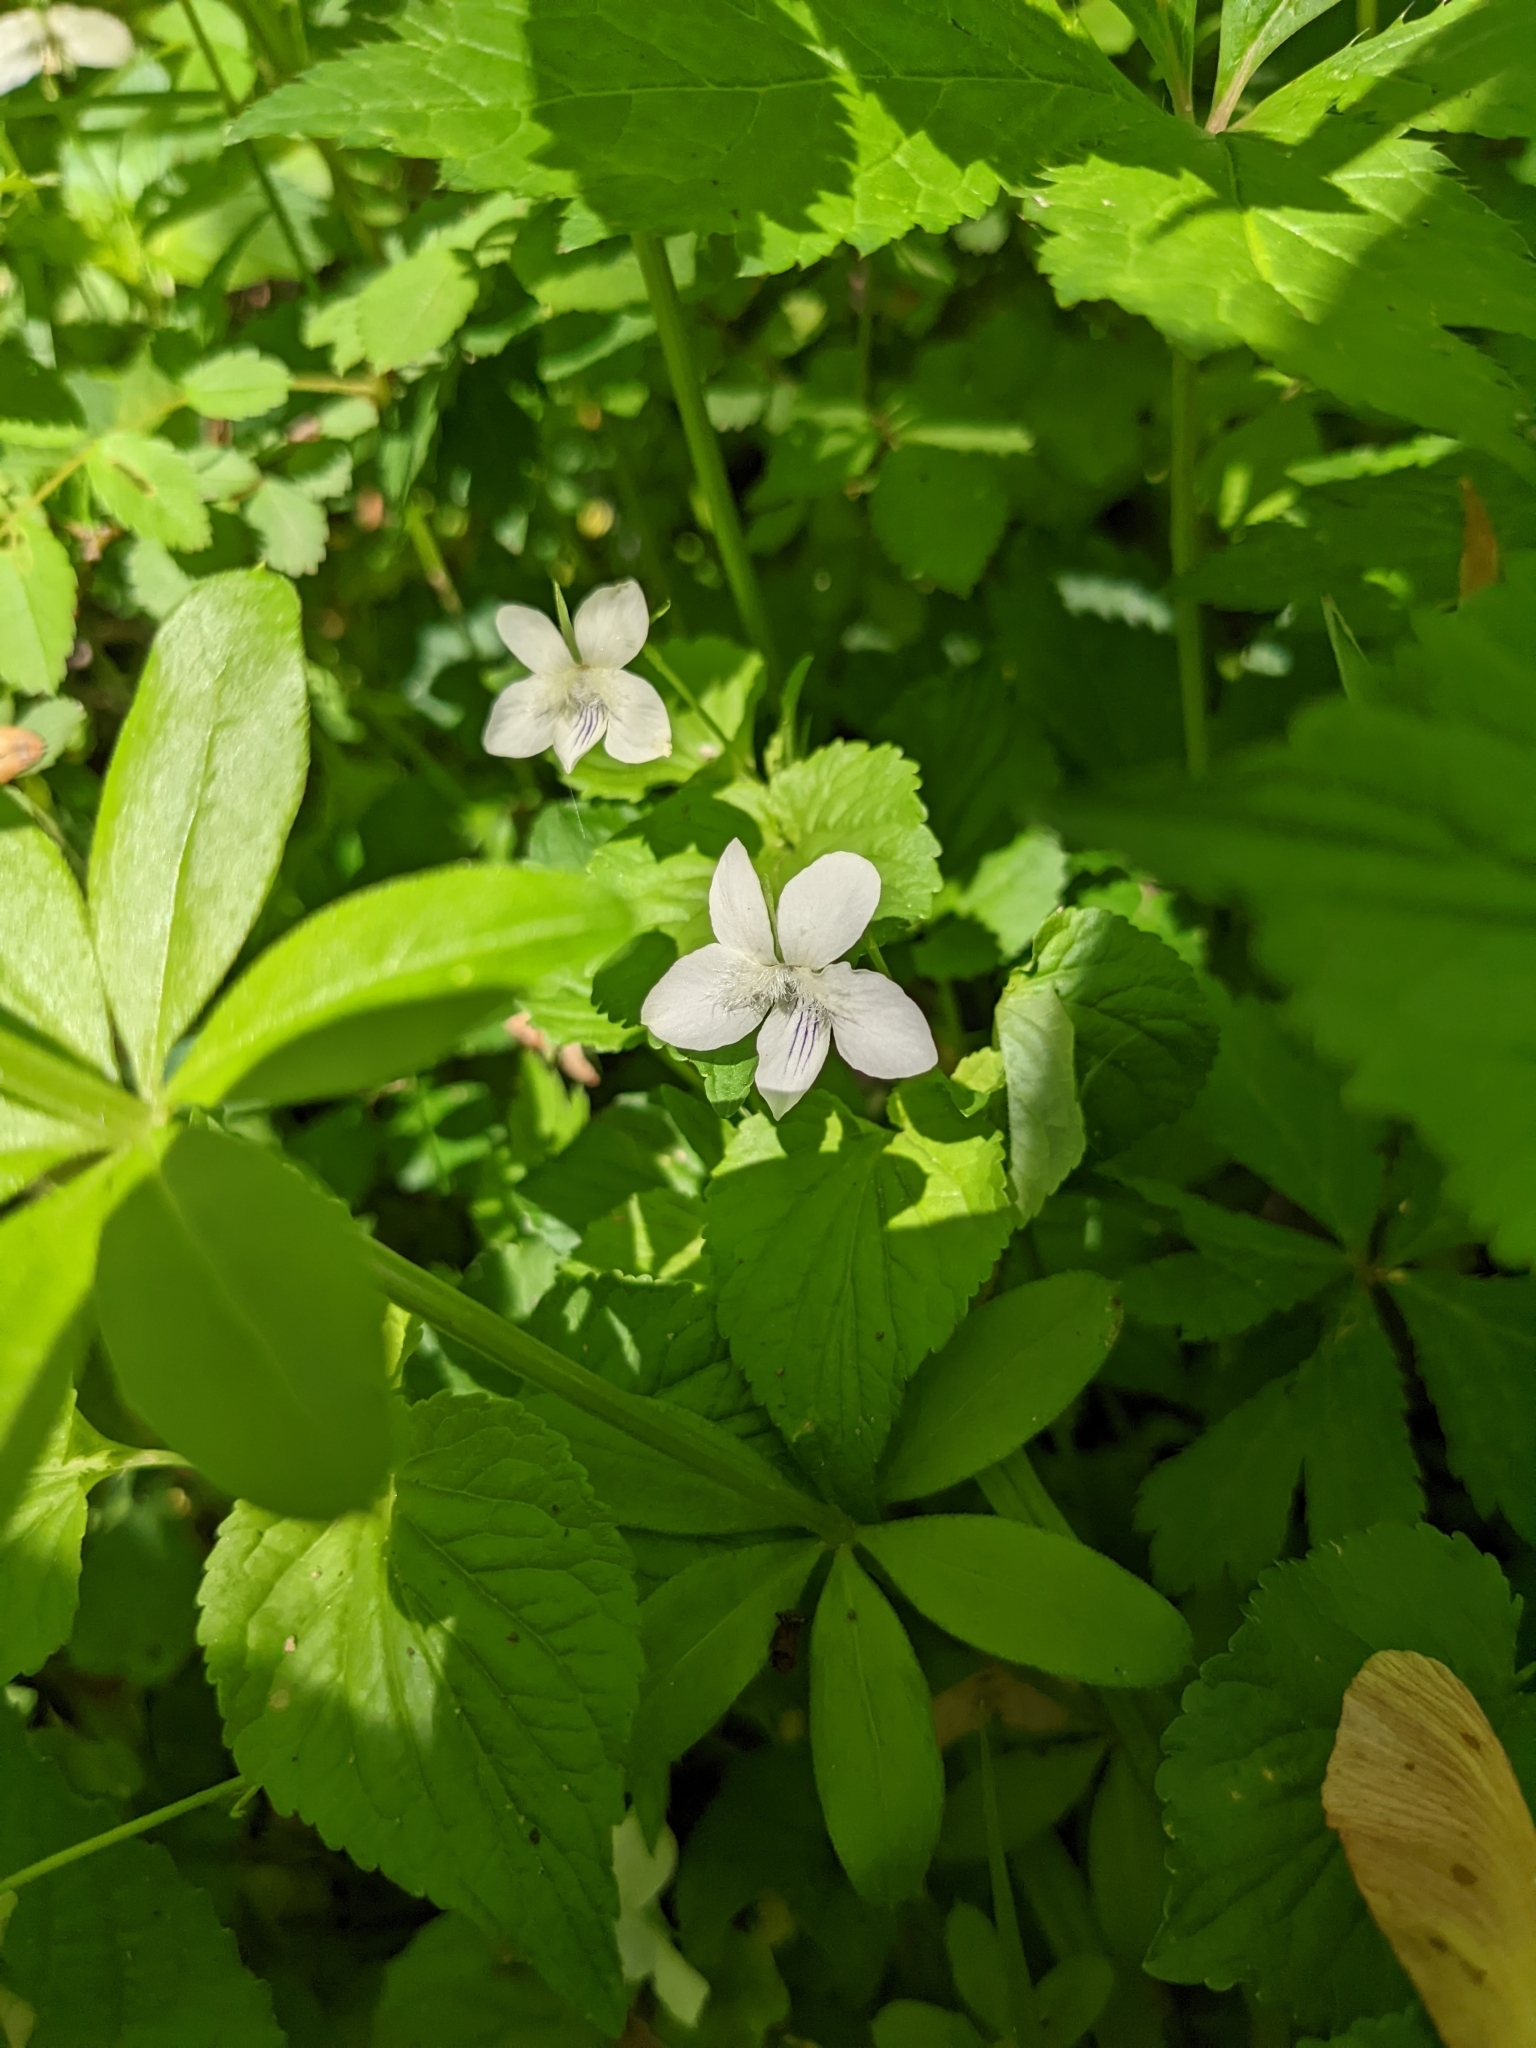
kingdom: Plantae
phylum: Tracheophyta
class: Magnoliopsida
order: Malpighiales
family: Violaceae
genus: Viola
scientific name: Viola striata
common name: Cream violet
